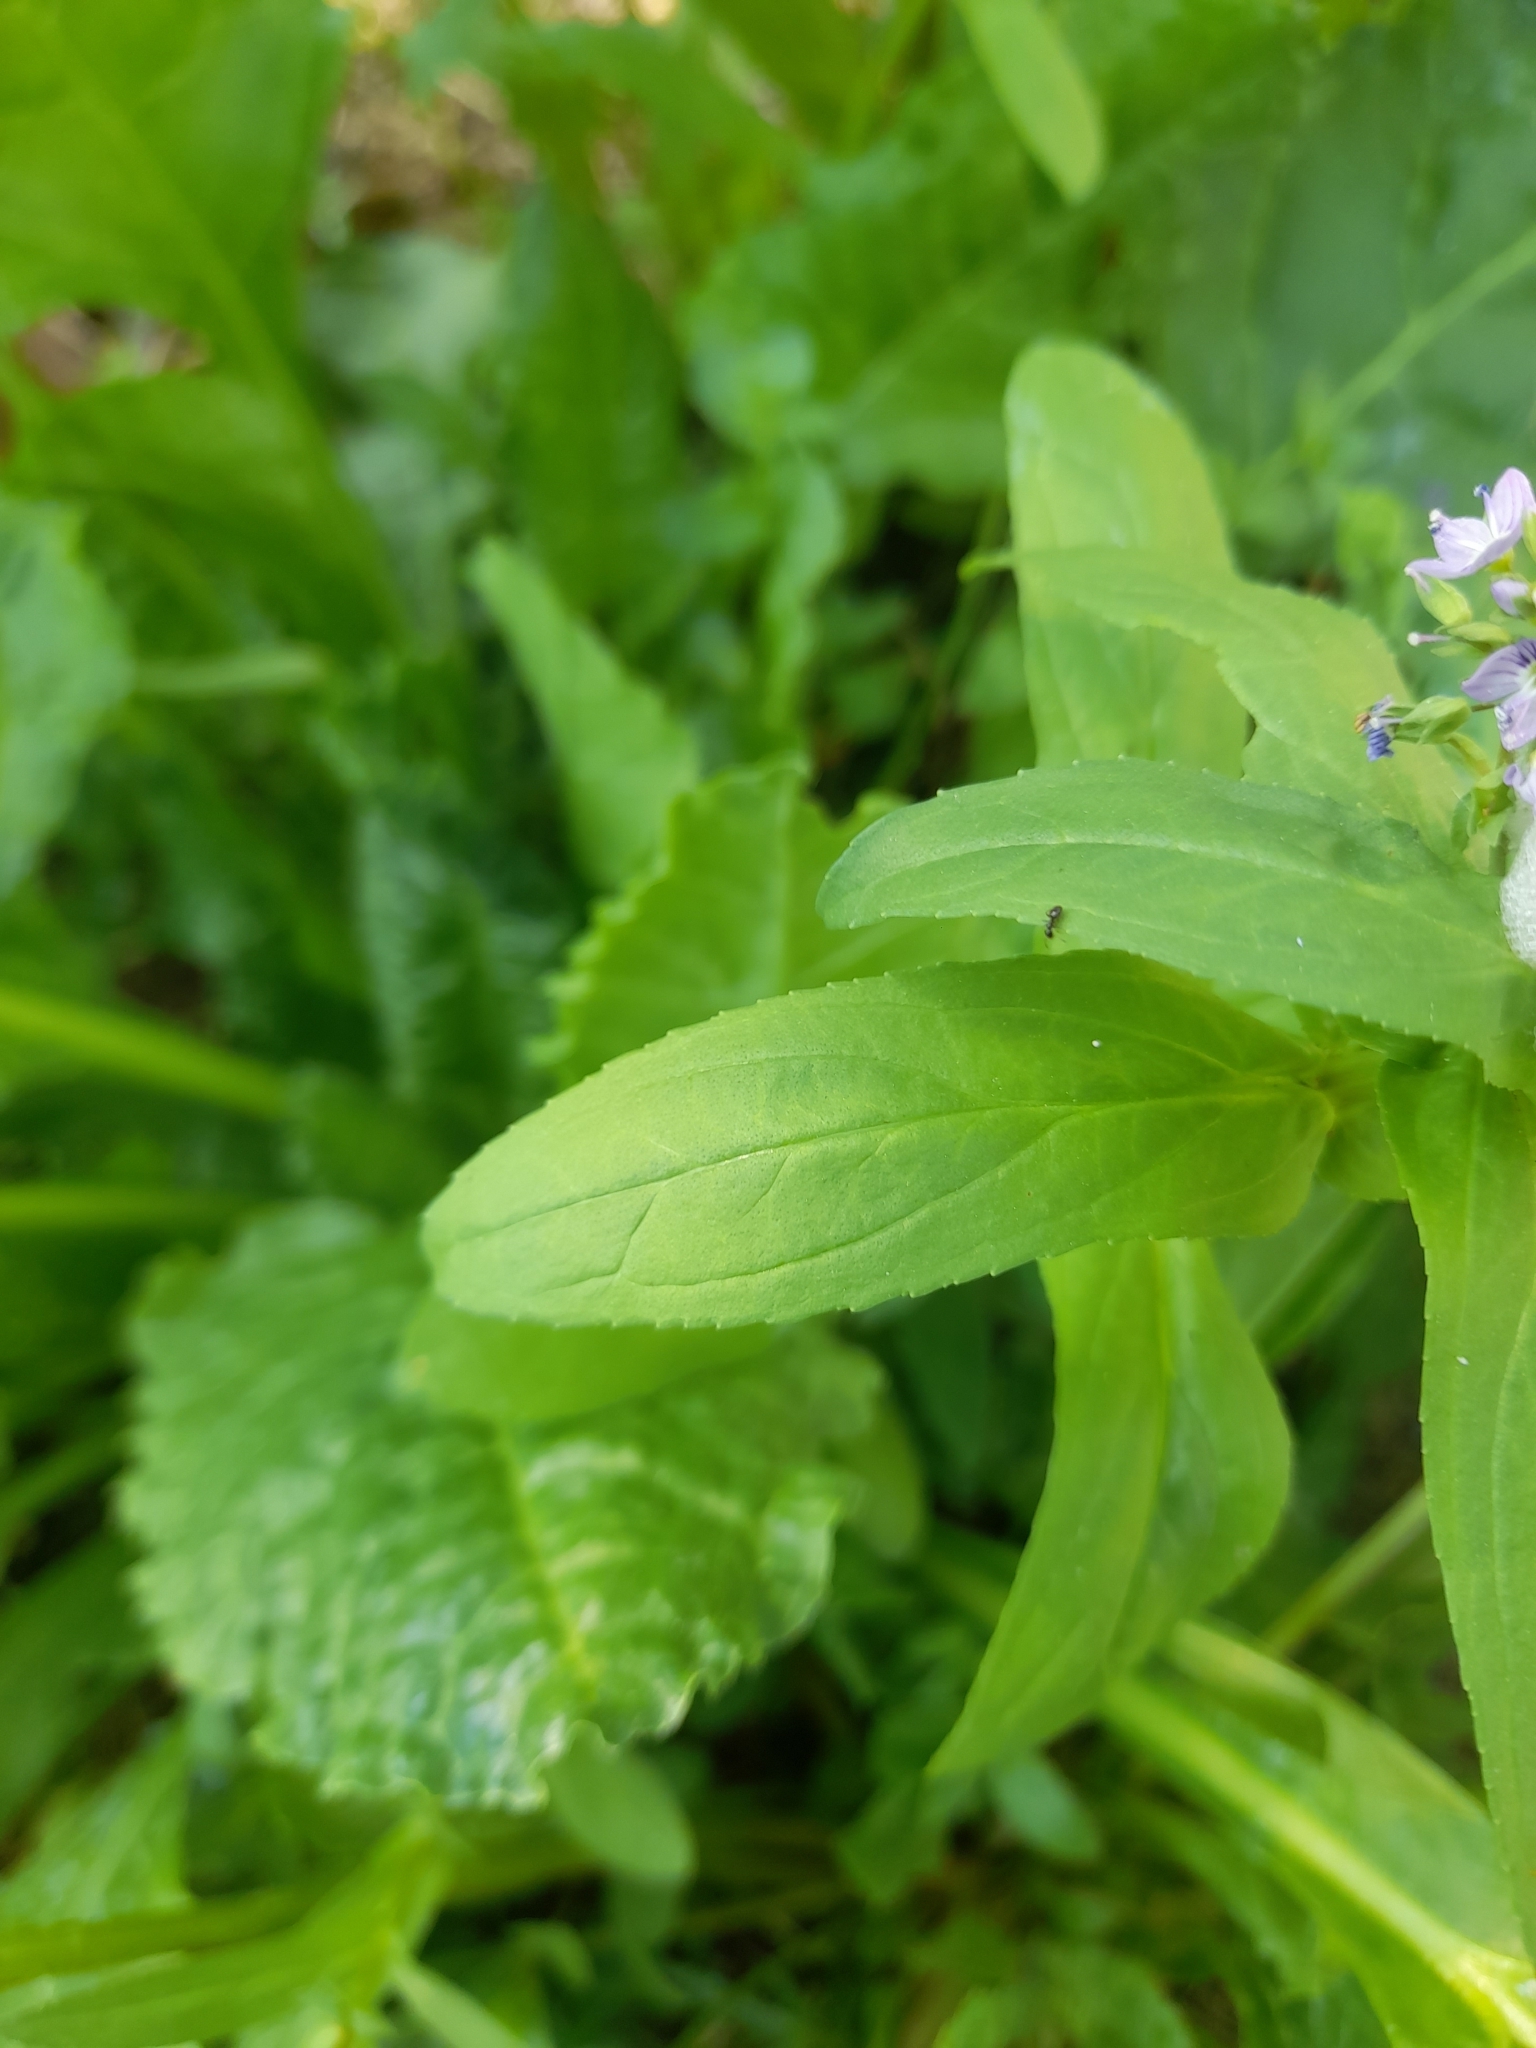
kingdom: Plantae
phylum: Tracheophyta
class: Magnoliopsida
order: Lamiales
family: Plantaginaceae
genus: Veronica
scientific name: Veronica anagallis-aquatica
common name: Water speedwell
